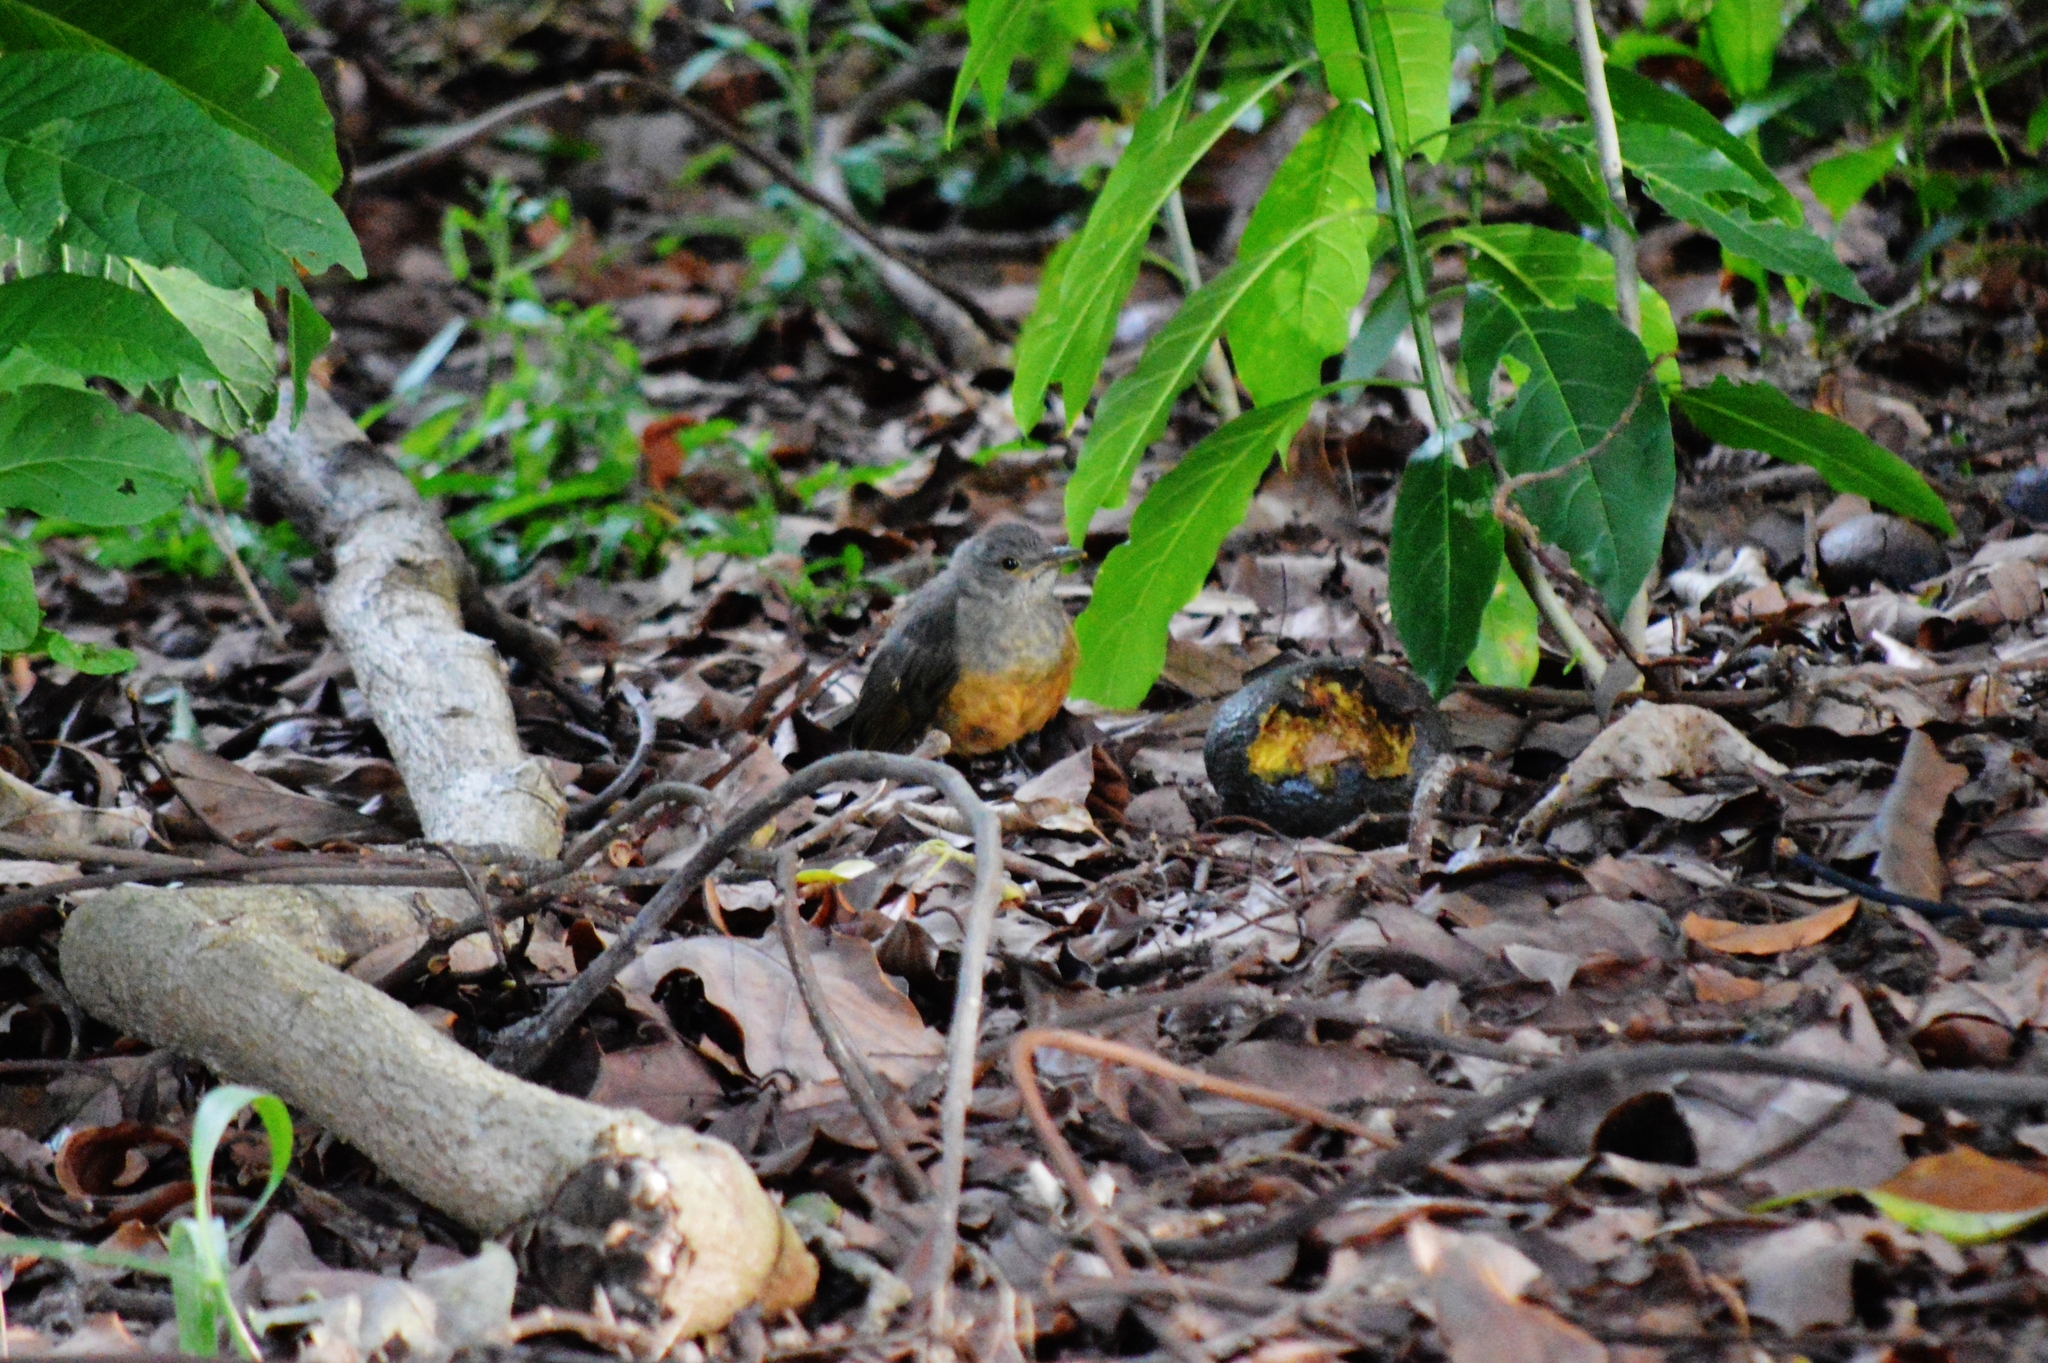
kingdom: Animalia
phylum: Chordata
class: Aves
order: Passeriformes
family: Turdidae
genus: Turdus
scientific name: Turdus rufiventris
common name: Rufous-bellied thrush
